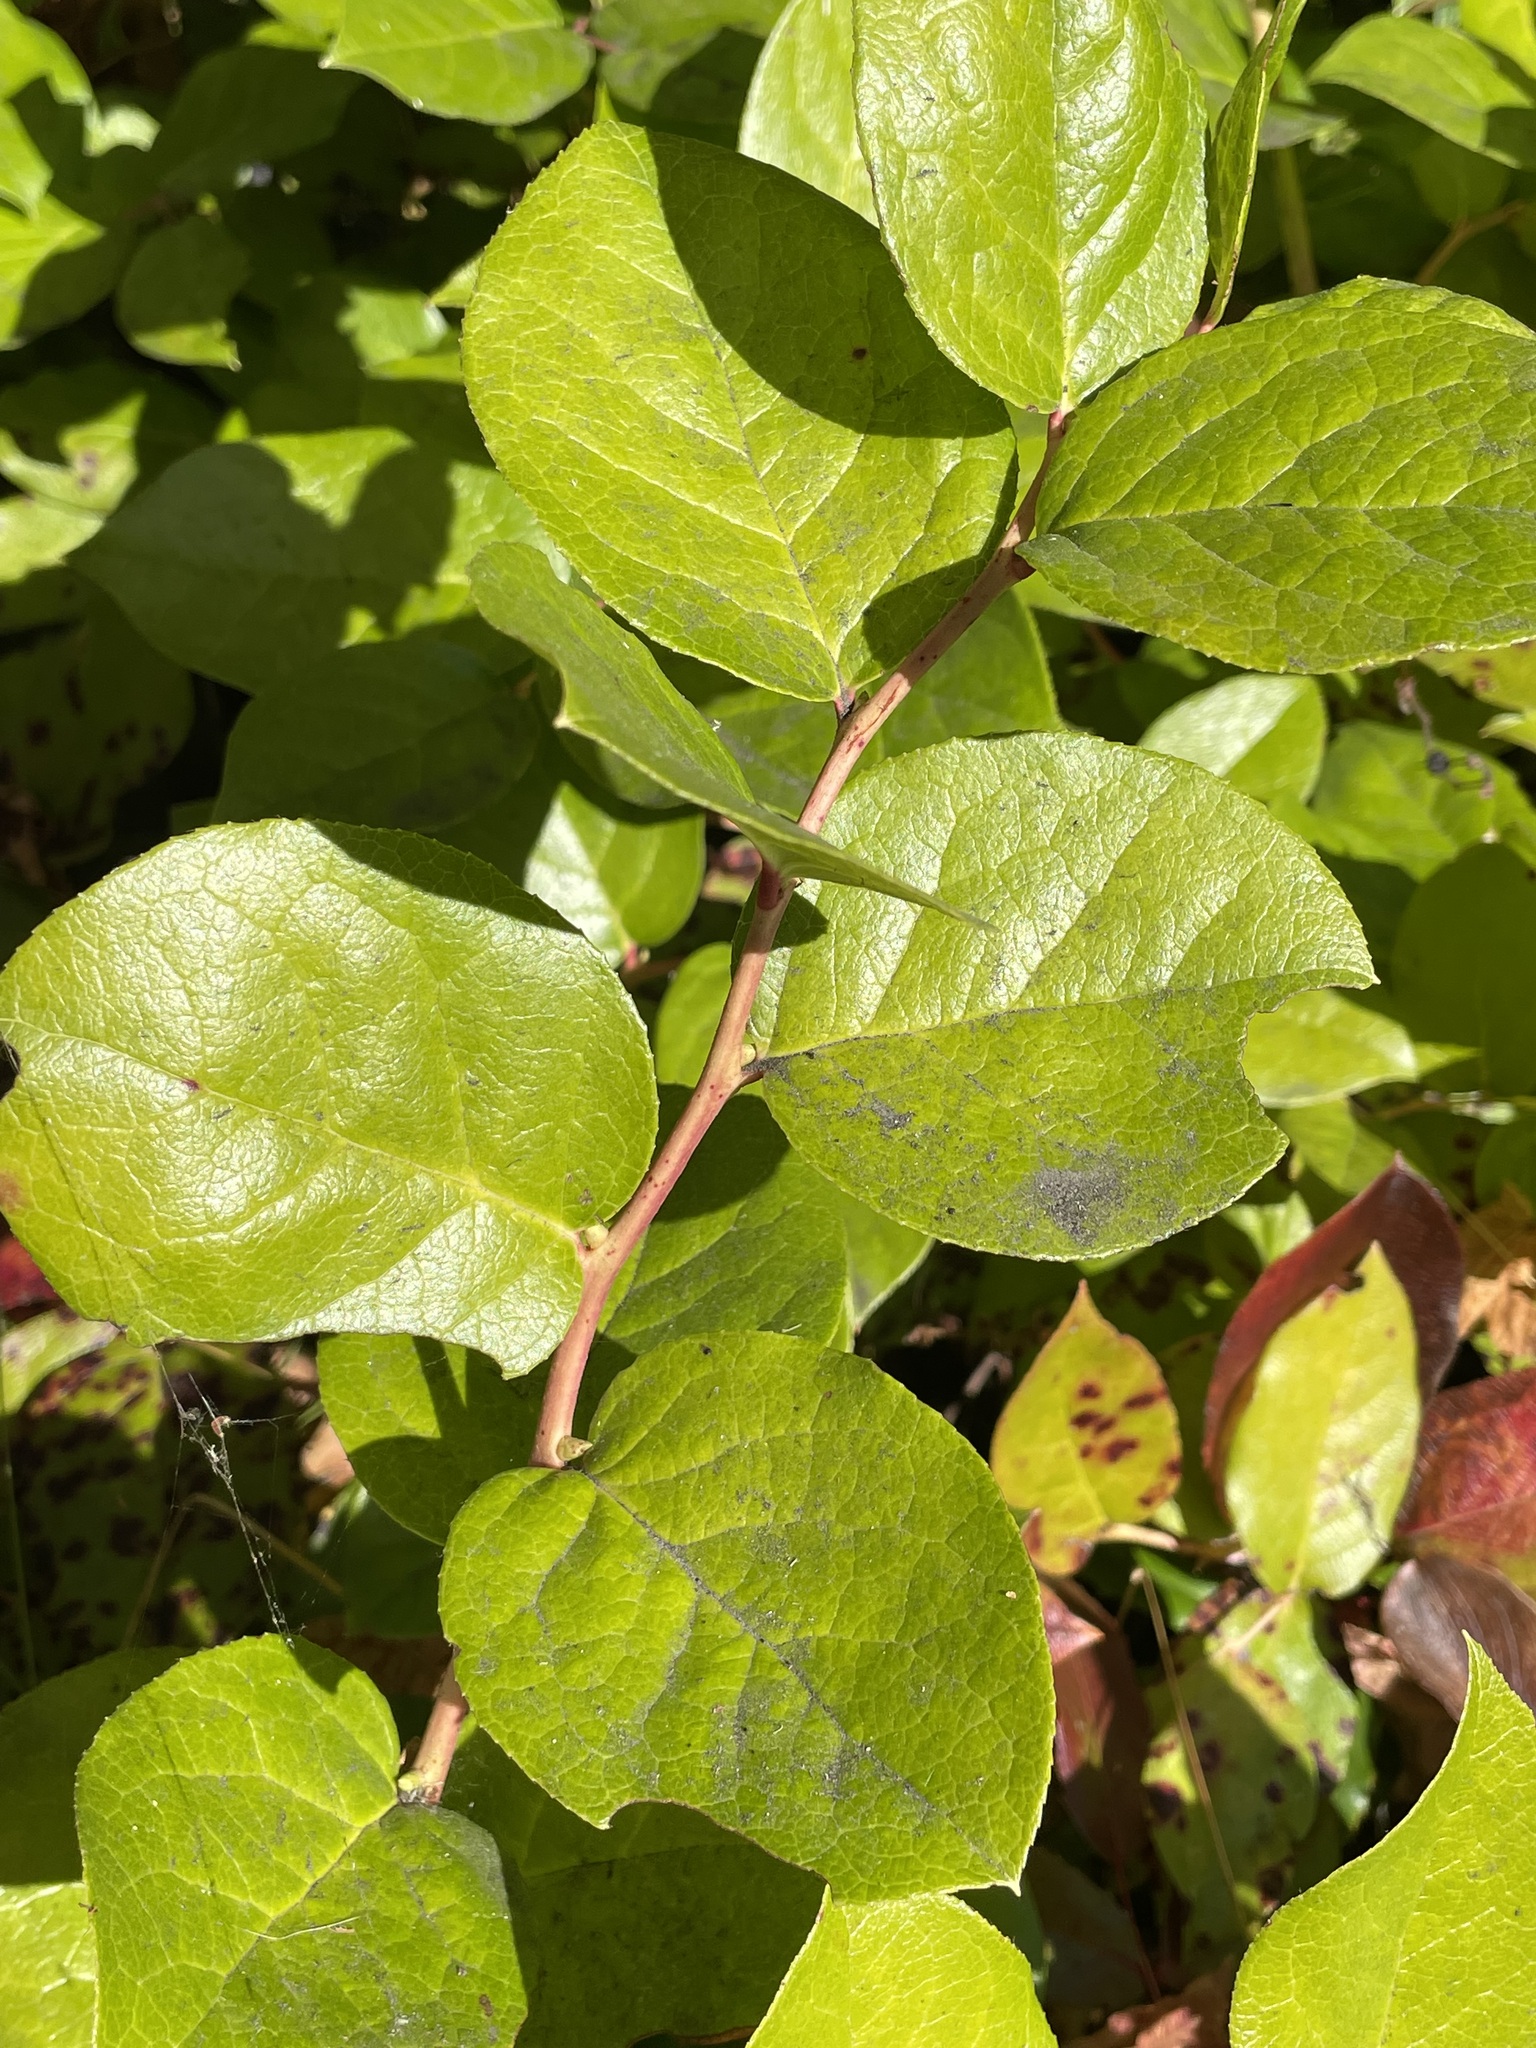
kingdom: Plantae
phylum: Tracheophyta
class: Magnoliopsida
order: Ericales
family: Ericaceae
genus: Gaultheria
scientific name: Gaultheria shallon
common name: Shallon
